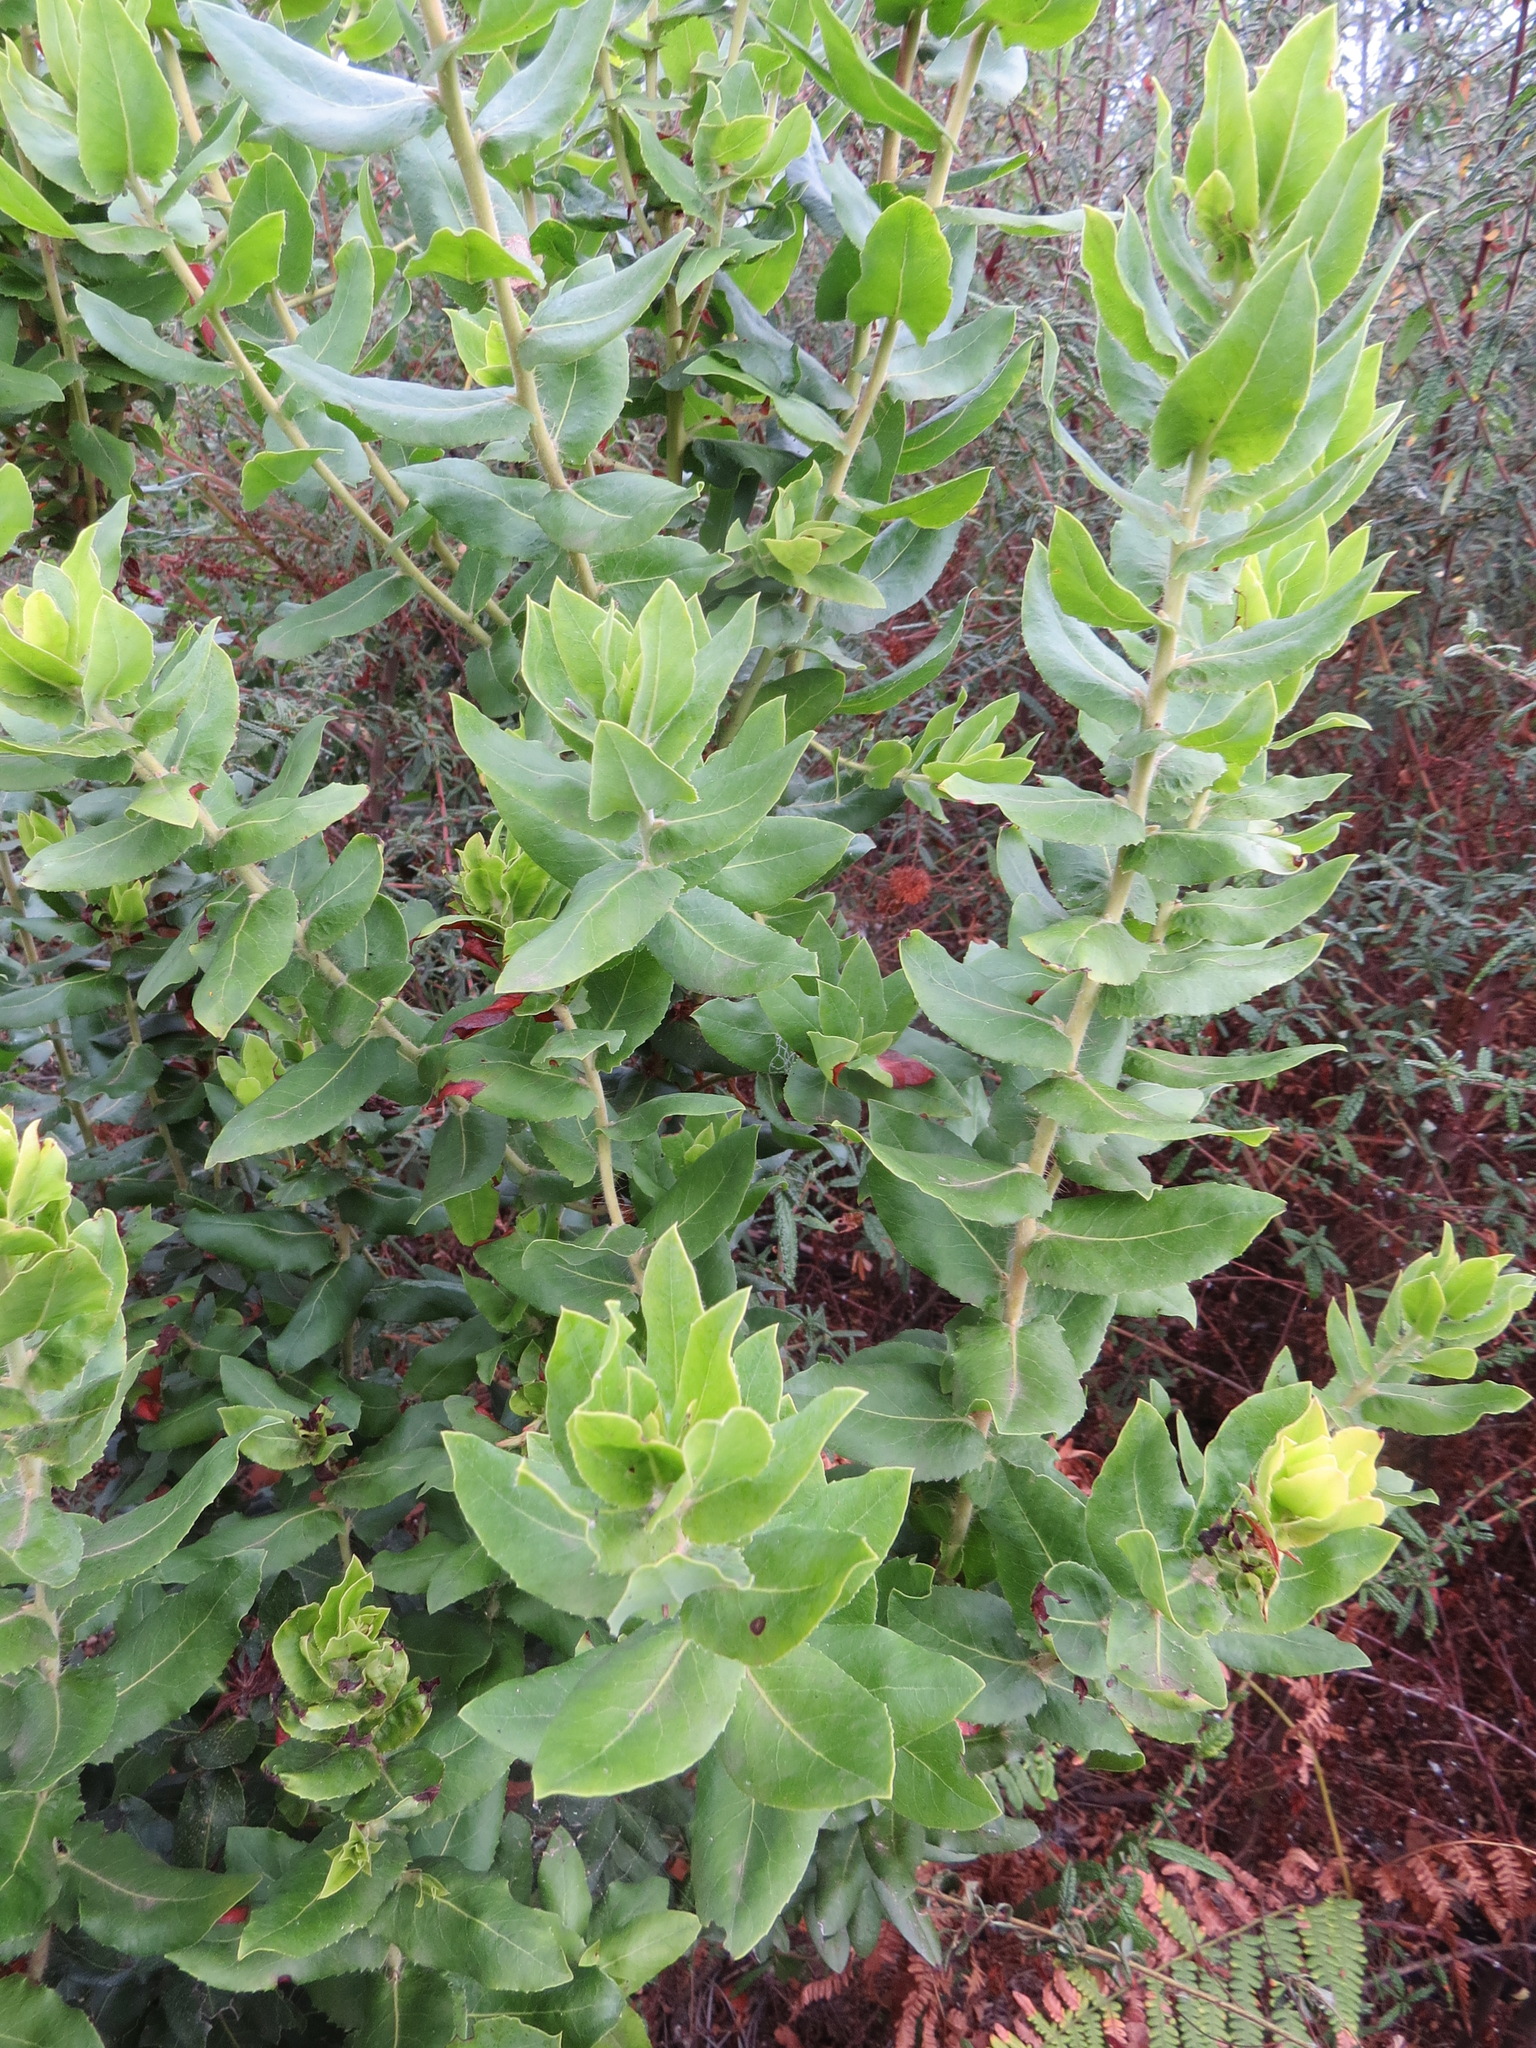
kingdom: Plantae
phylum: Tracheophyta
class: Magnoliopsida
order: Ericales
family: Ericaceae
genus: Arctostaphylos
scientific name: Arctostaphylos andersonii
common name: Santa cruz manzanita
